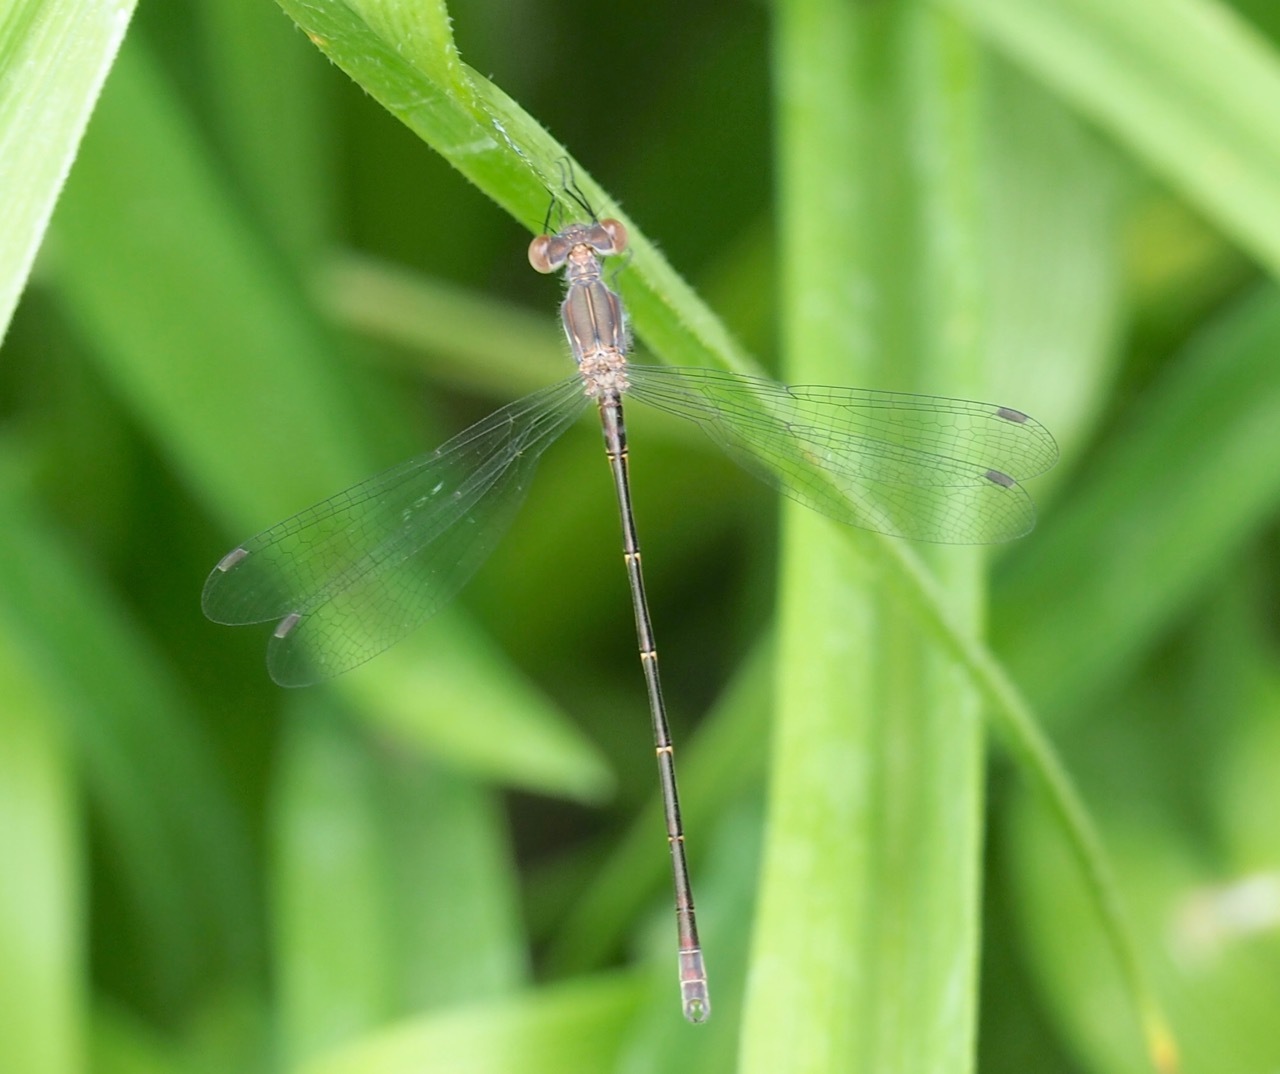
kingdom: Animalia
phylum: Arthropoda
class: Insecta
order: Odonata
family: Lestidae
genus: Lestes
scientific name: Lestes congener
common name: Spotted spreadwing
